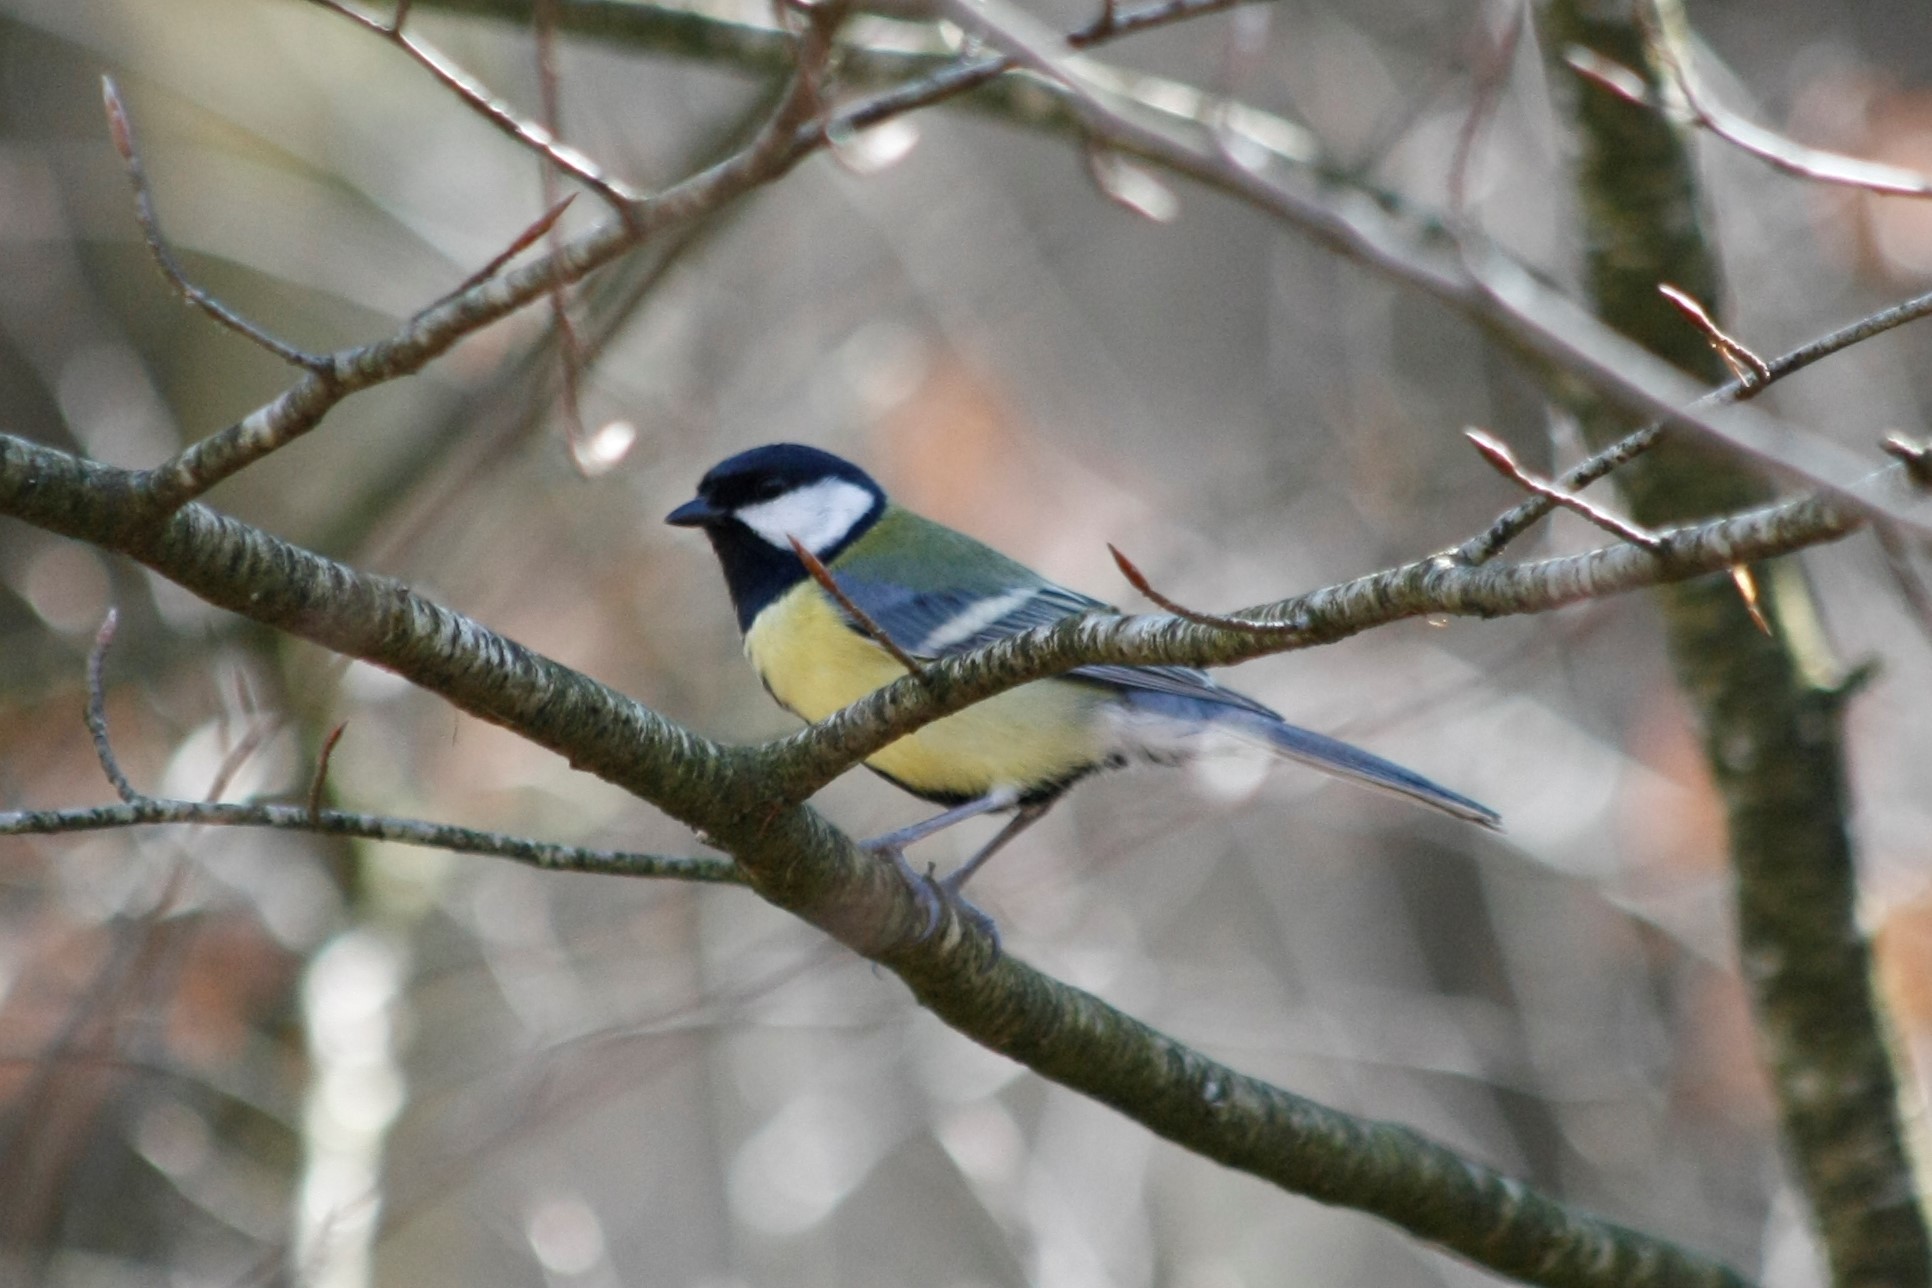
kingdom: Animalia
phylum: Chordata
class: Aves
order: Passeriformes
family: Paridae
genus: Parus
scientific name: Parus major
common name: Great tit
